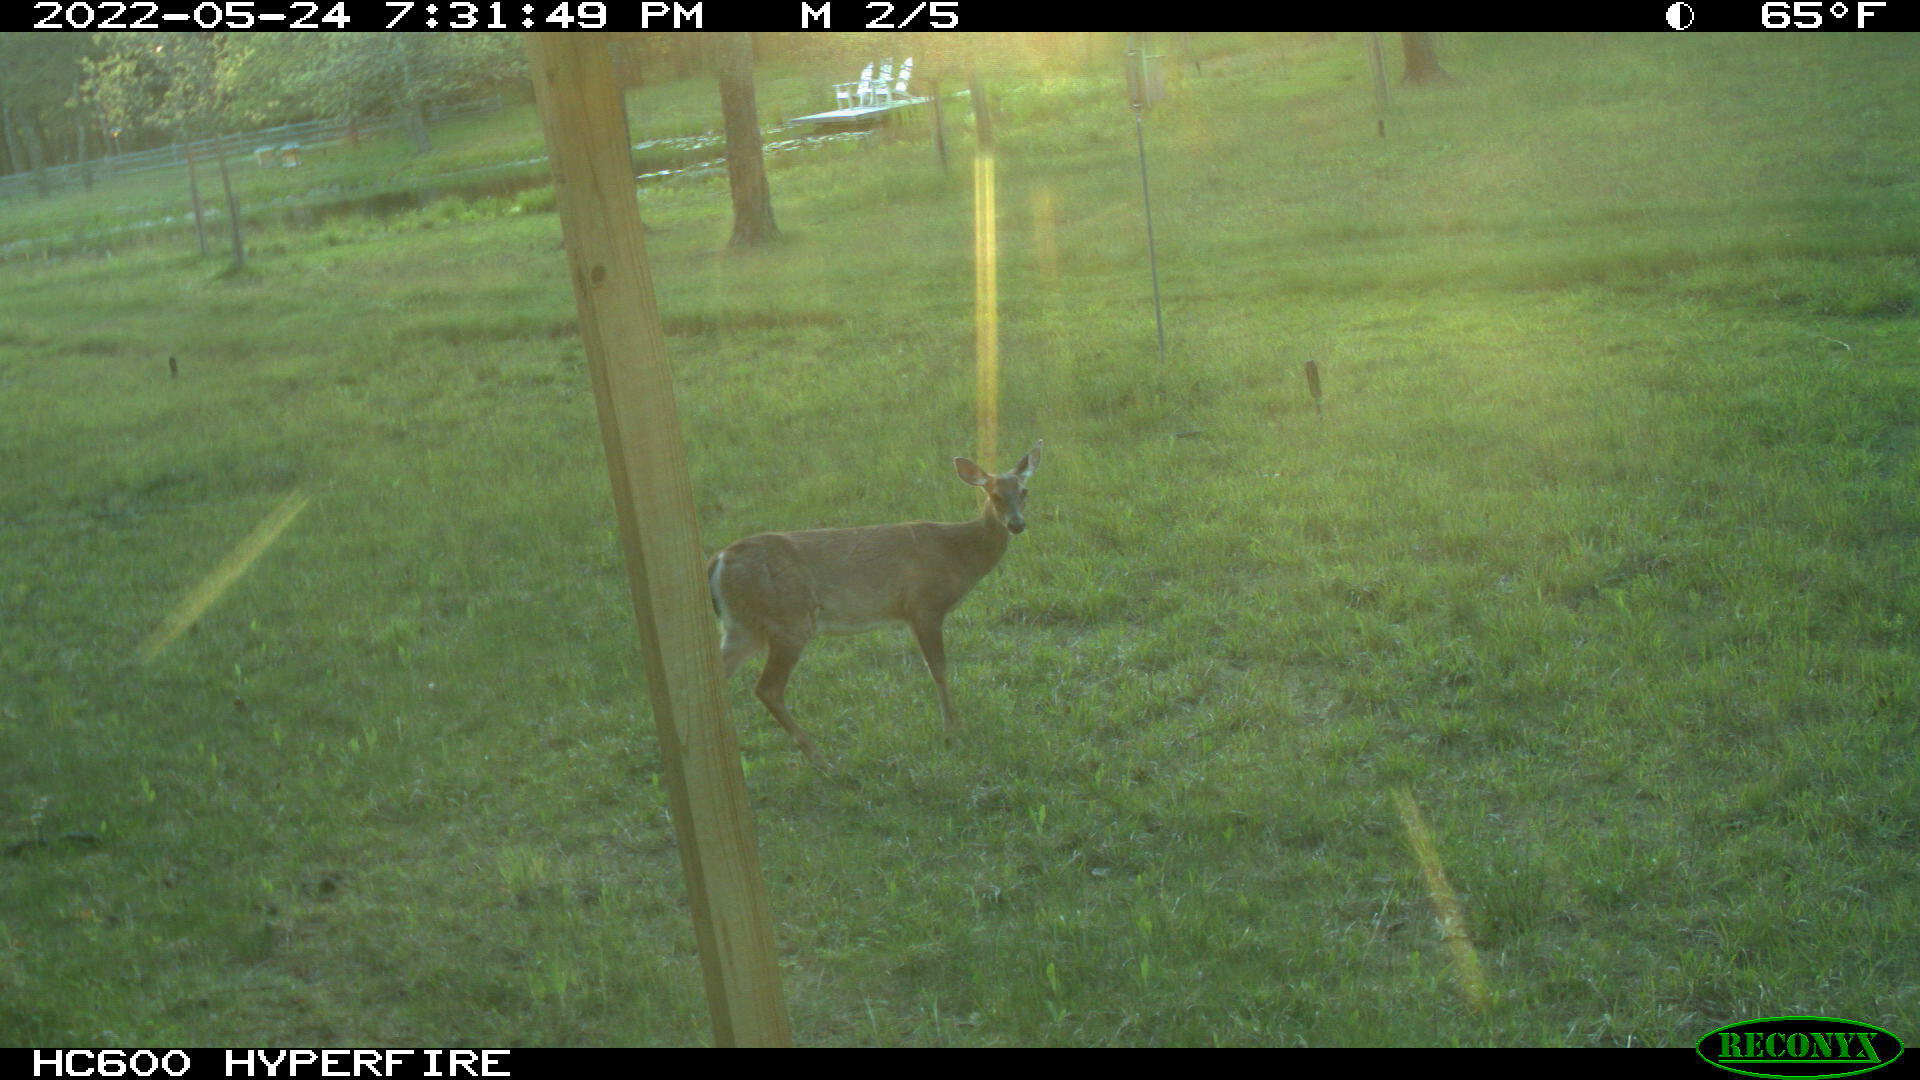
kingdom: Animalia
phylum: Chordata
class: Mammalia
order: Artiodactyla
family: Cervidae
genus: Odocoileus
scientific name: Odocoileus virginianus
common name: White-tailed deer
